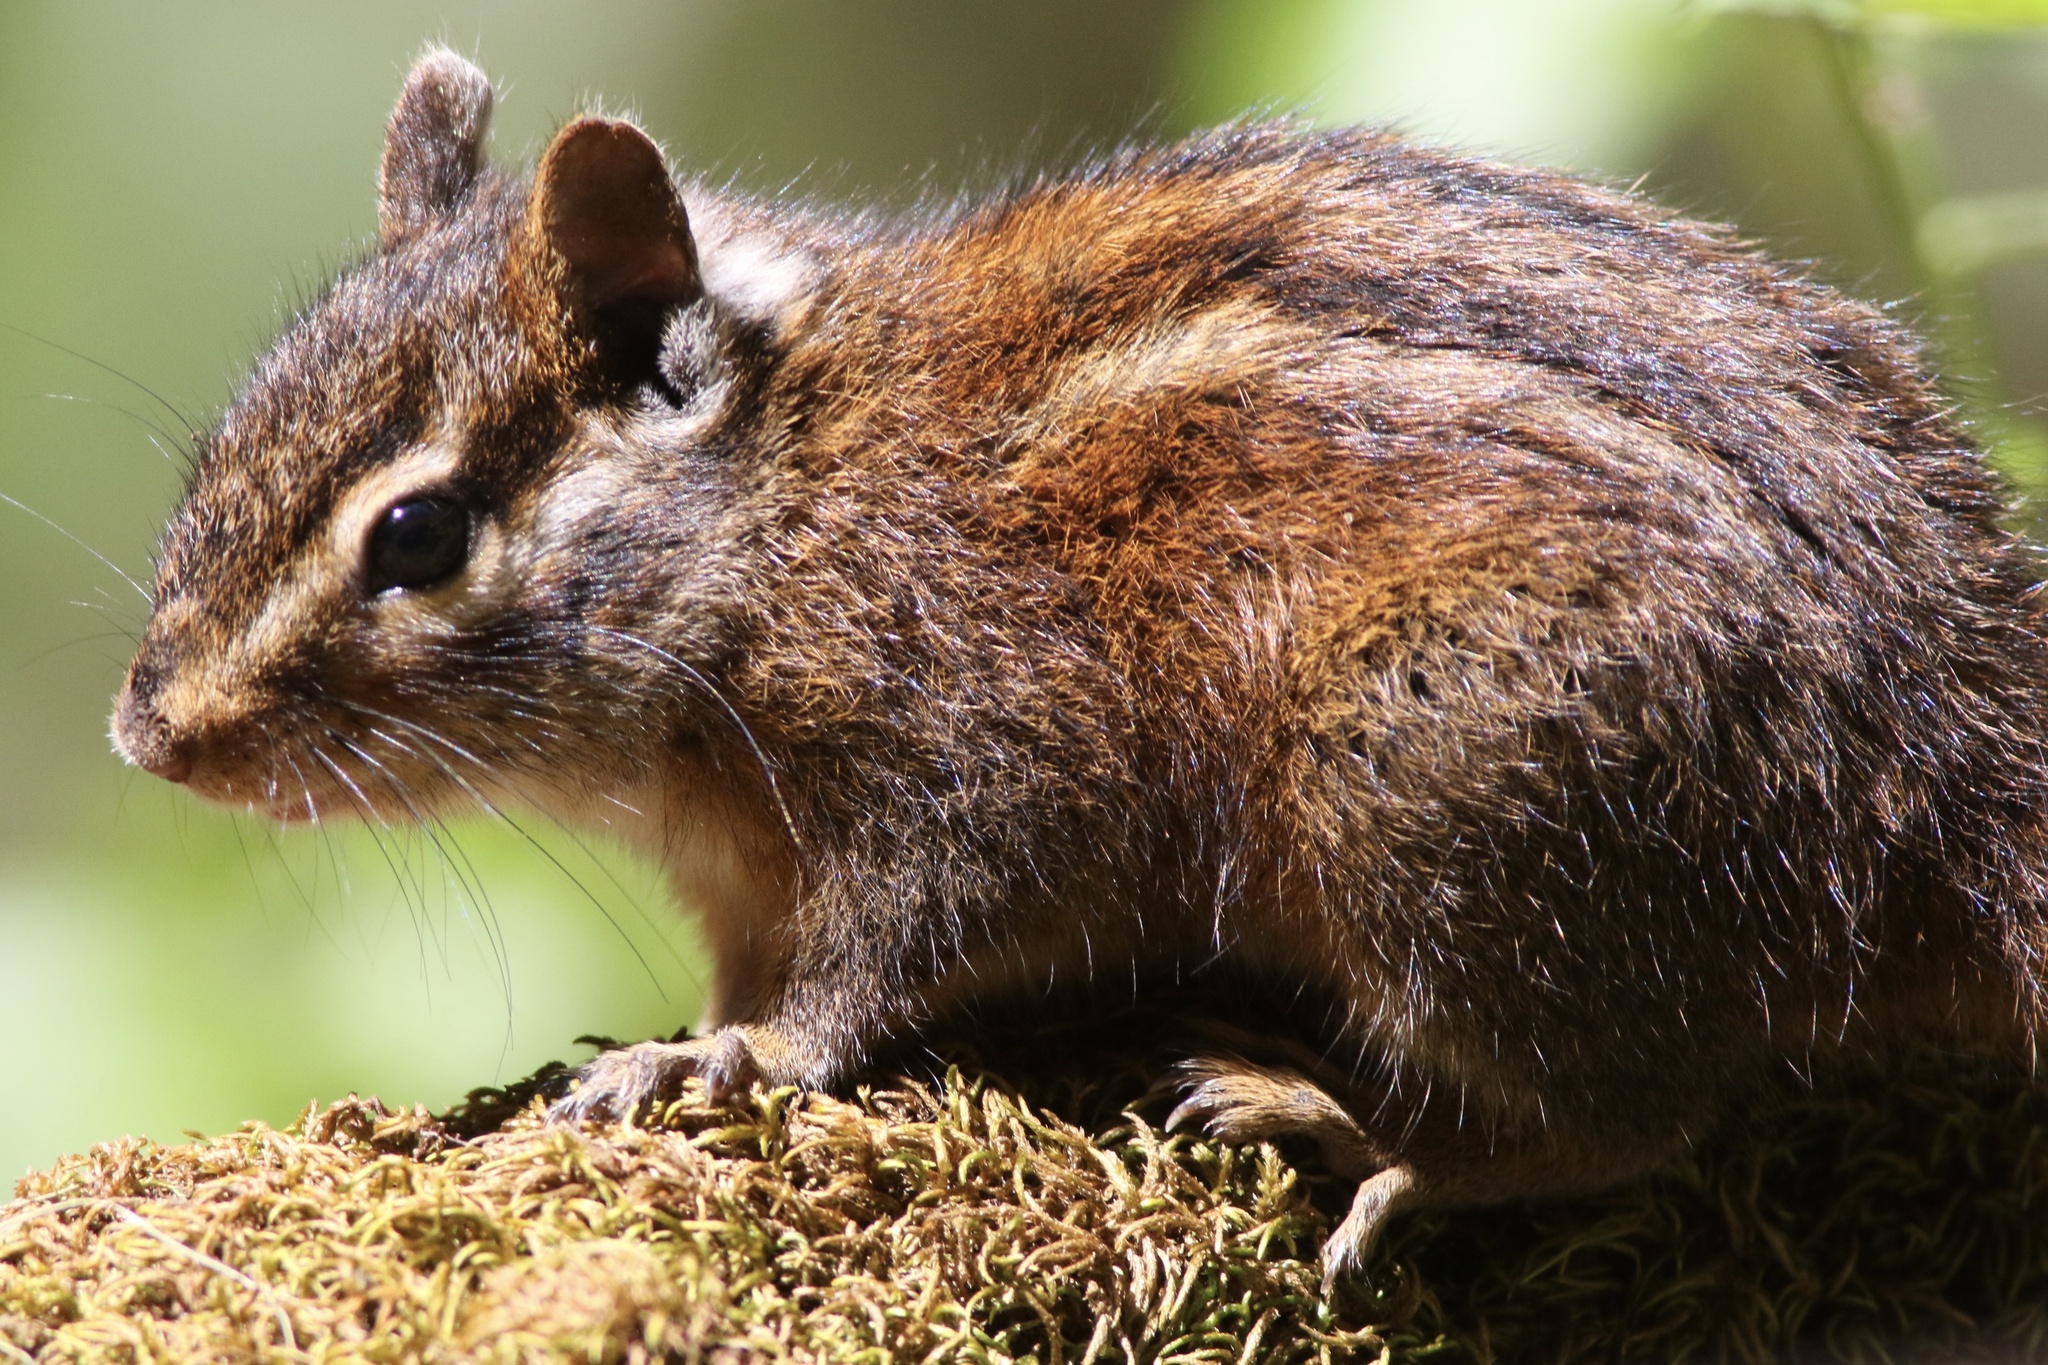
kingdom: Animalia
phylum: Chordata
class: Mammalia
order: Rodentia
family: Sciuridae
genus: Tamias
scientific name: Tamias sonomae
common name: Sonoma chipmunk
